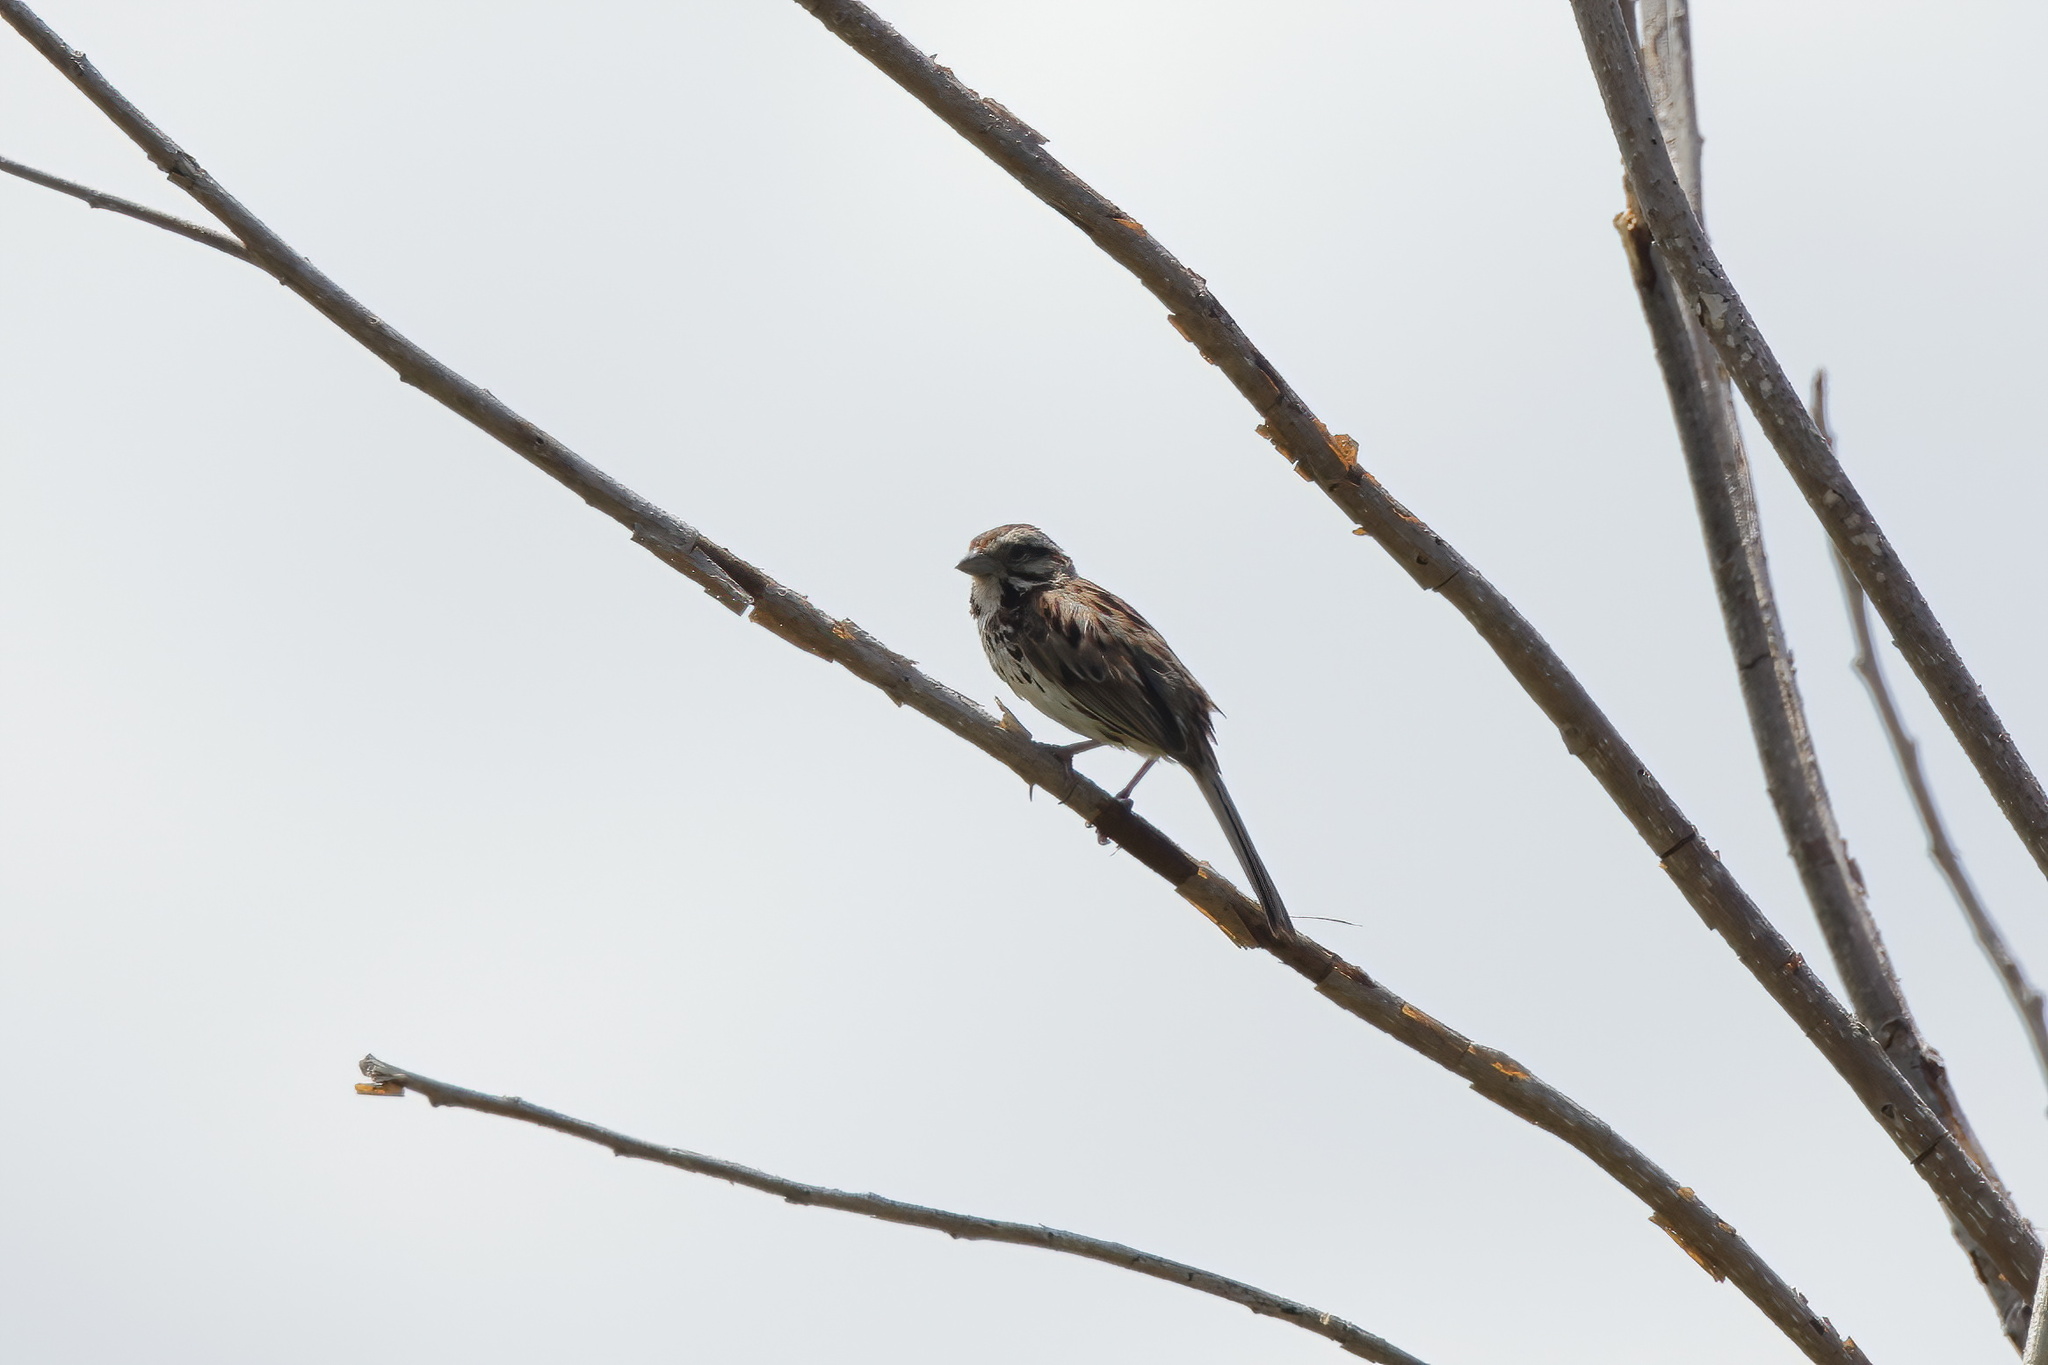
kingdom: Animalia
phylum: Chordata
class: Aves
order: Passeriformes
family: Passerellidae
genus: Melospiza
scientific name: Melospiza melodia
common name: Song sparrow
